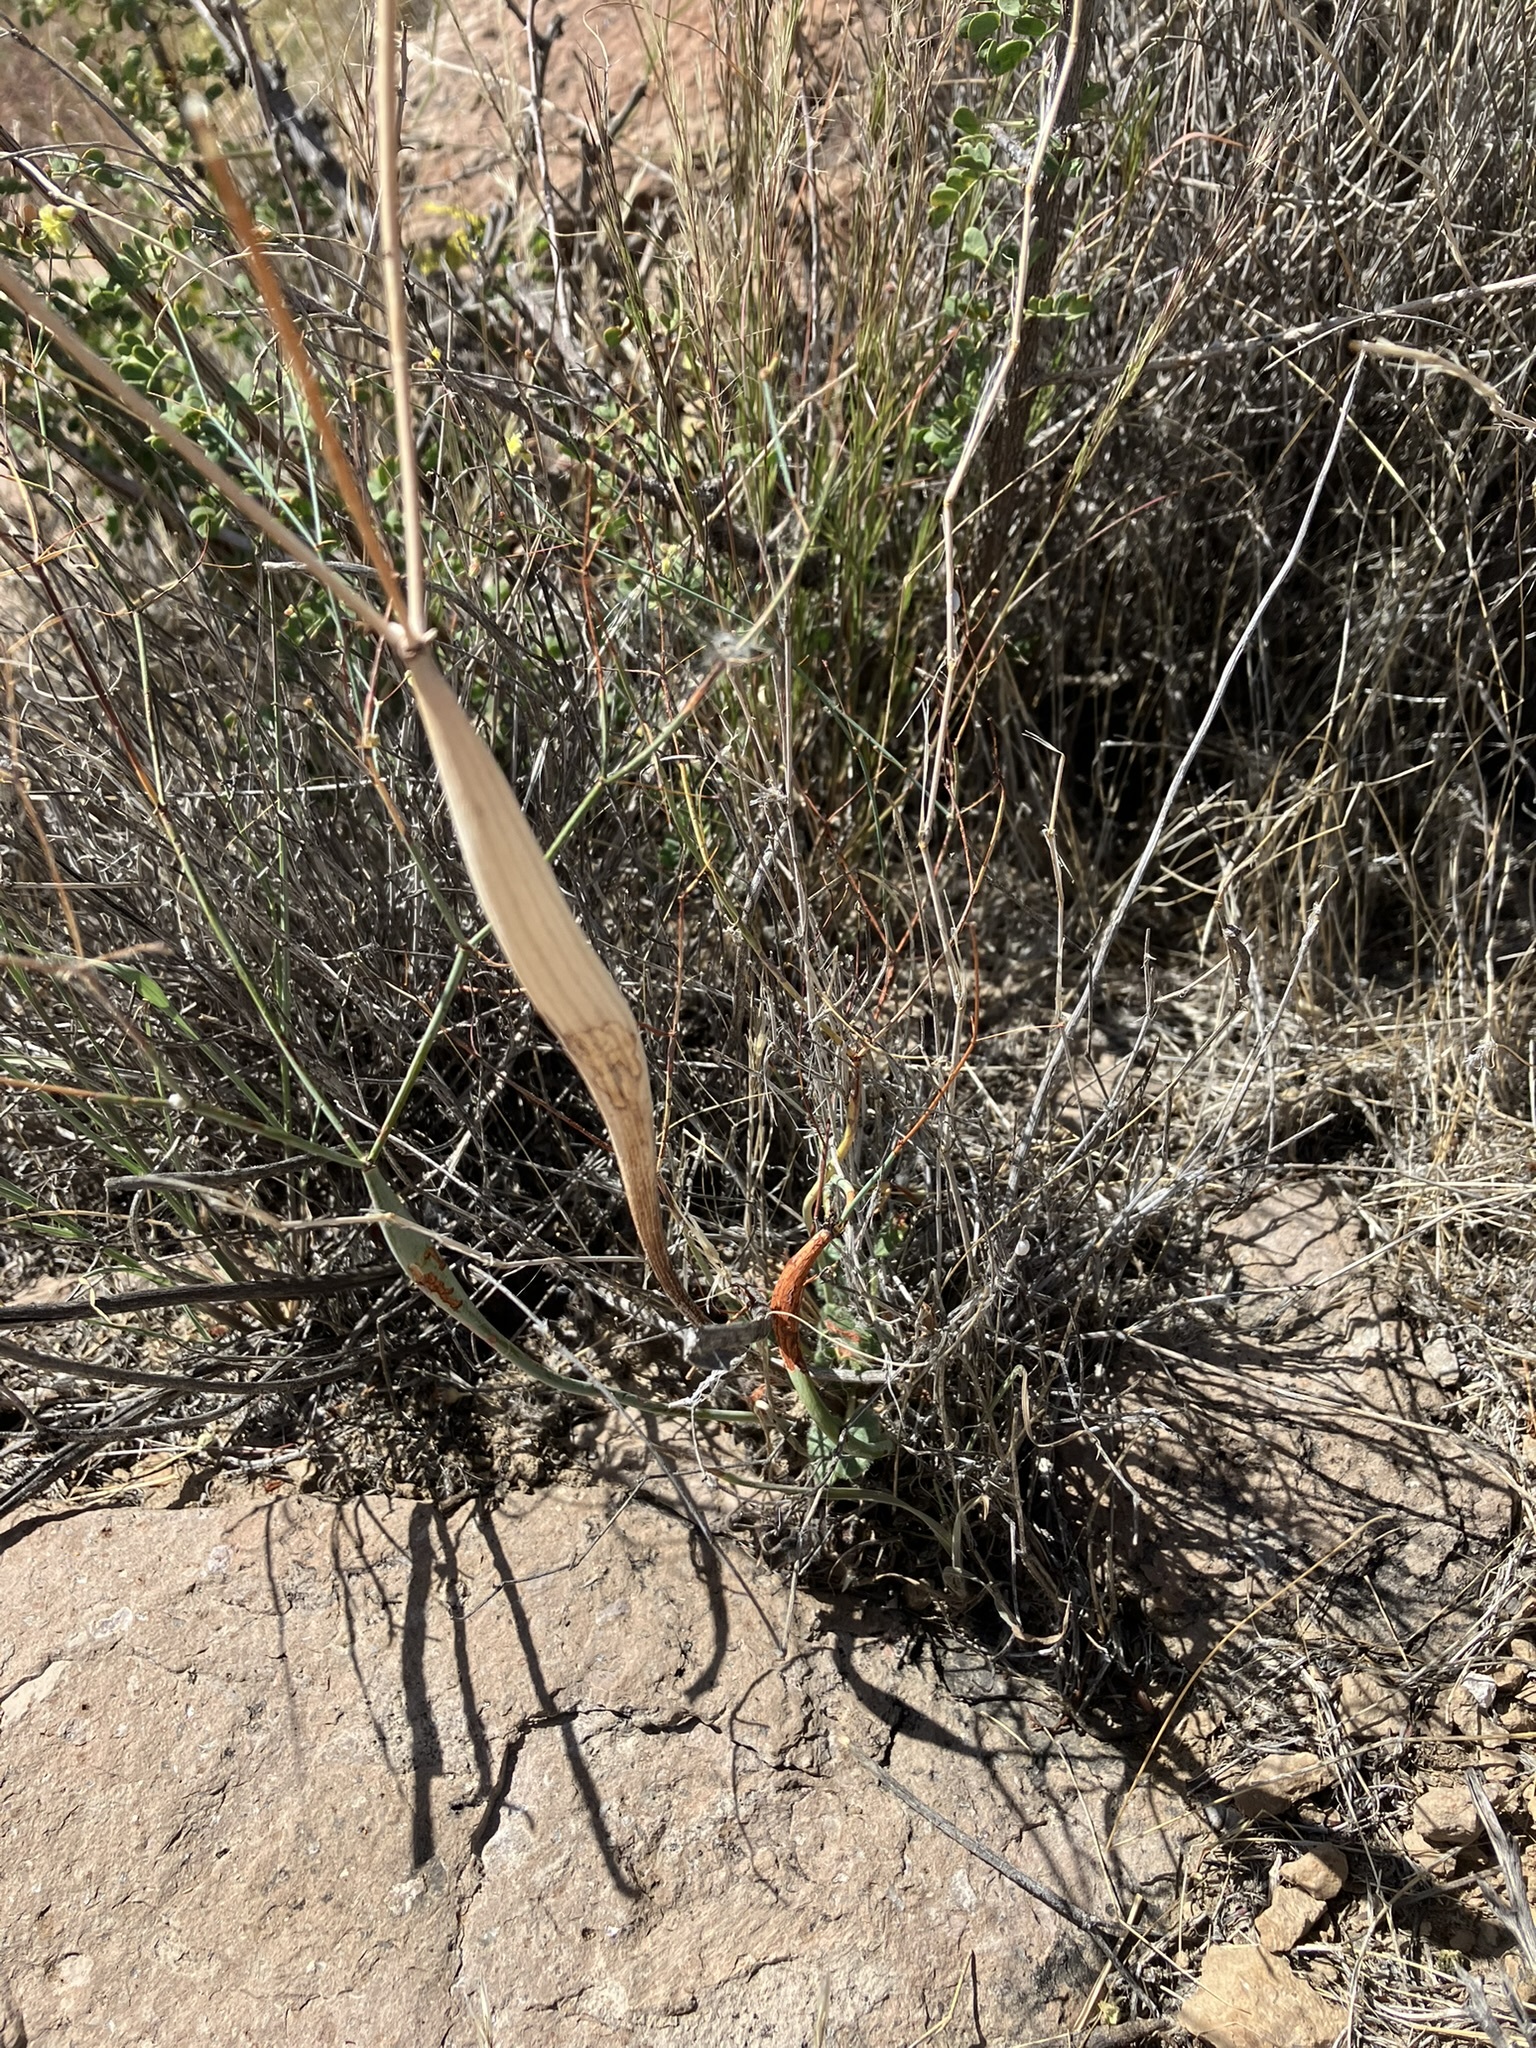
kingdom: Plantae
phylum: Tracheophyta
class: Magnoliopsida
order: Caryophyllales
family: Polygonaceae
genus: Eriogonum
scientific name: Eriogonum inflatum
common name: Desert trumpet
